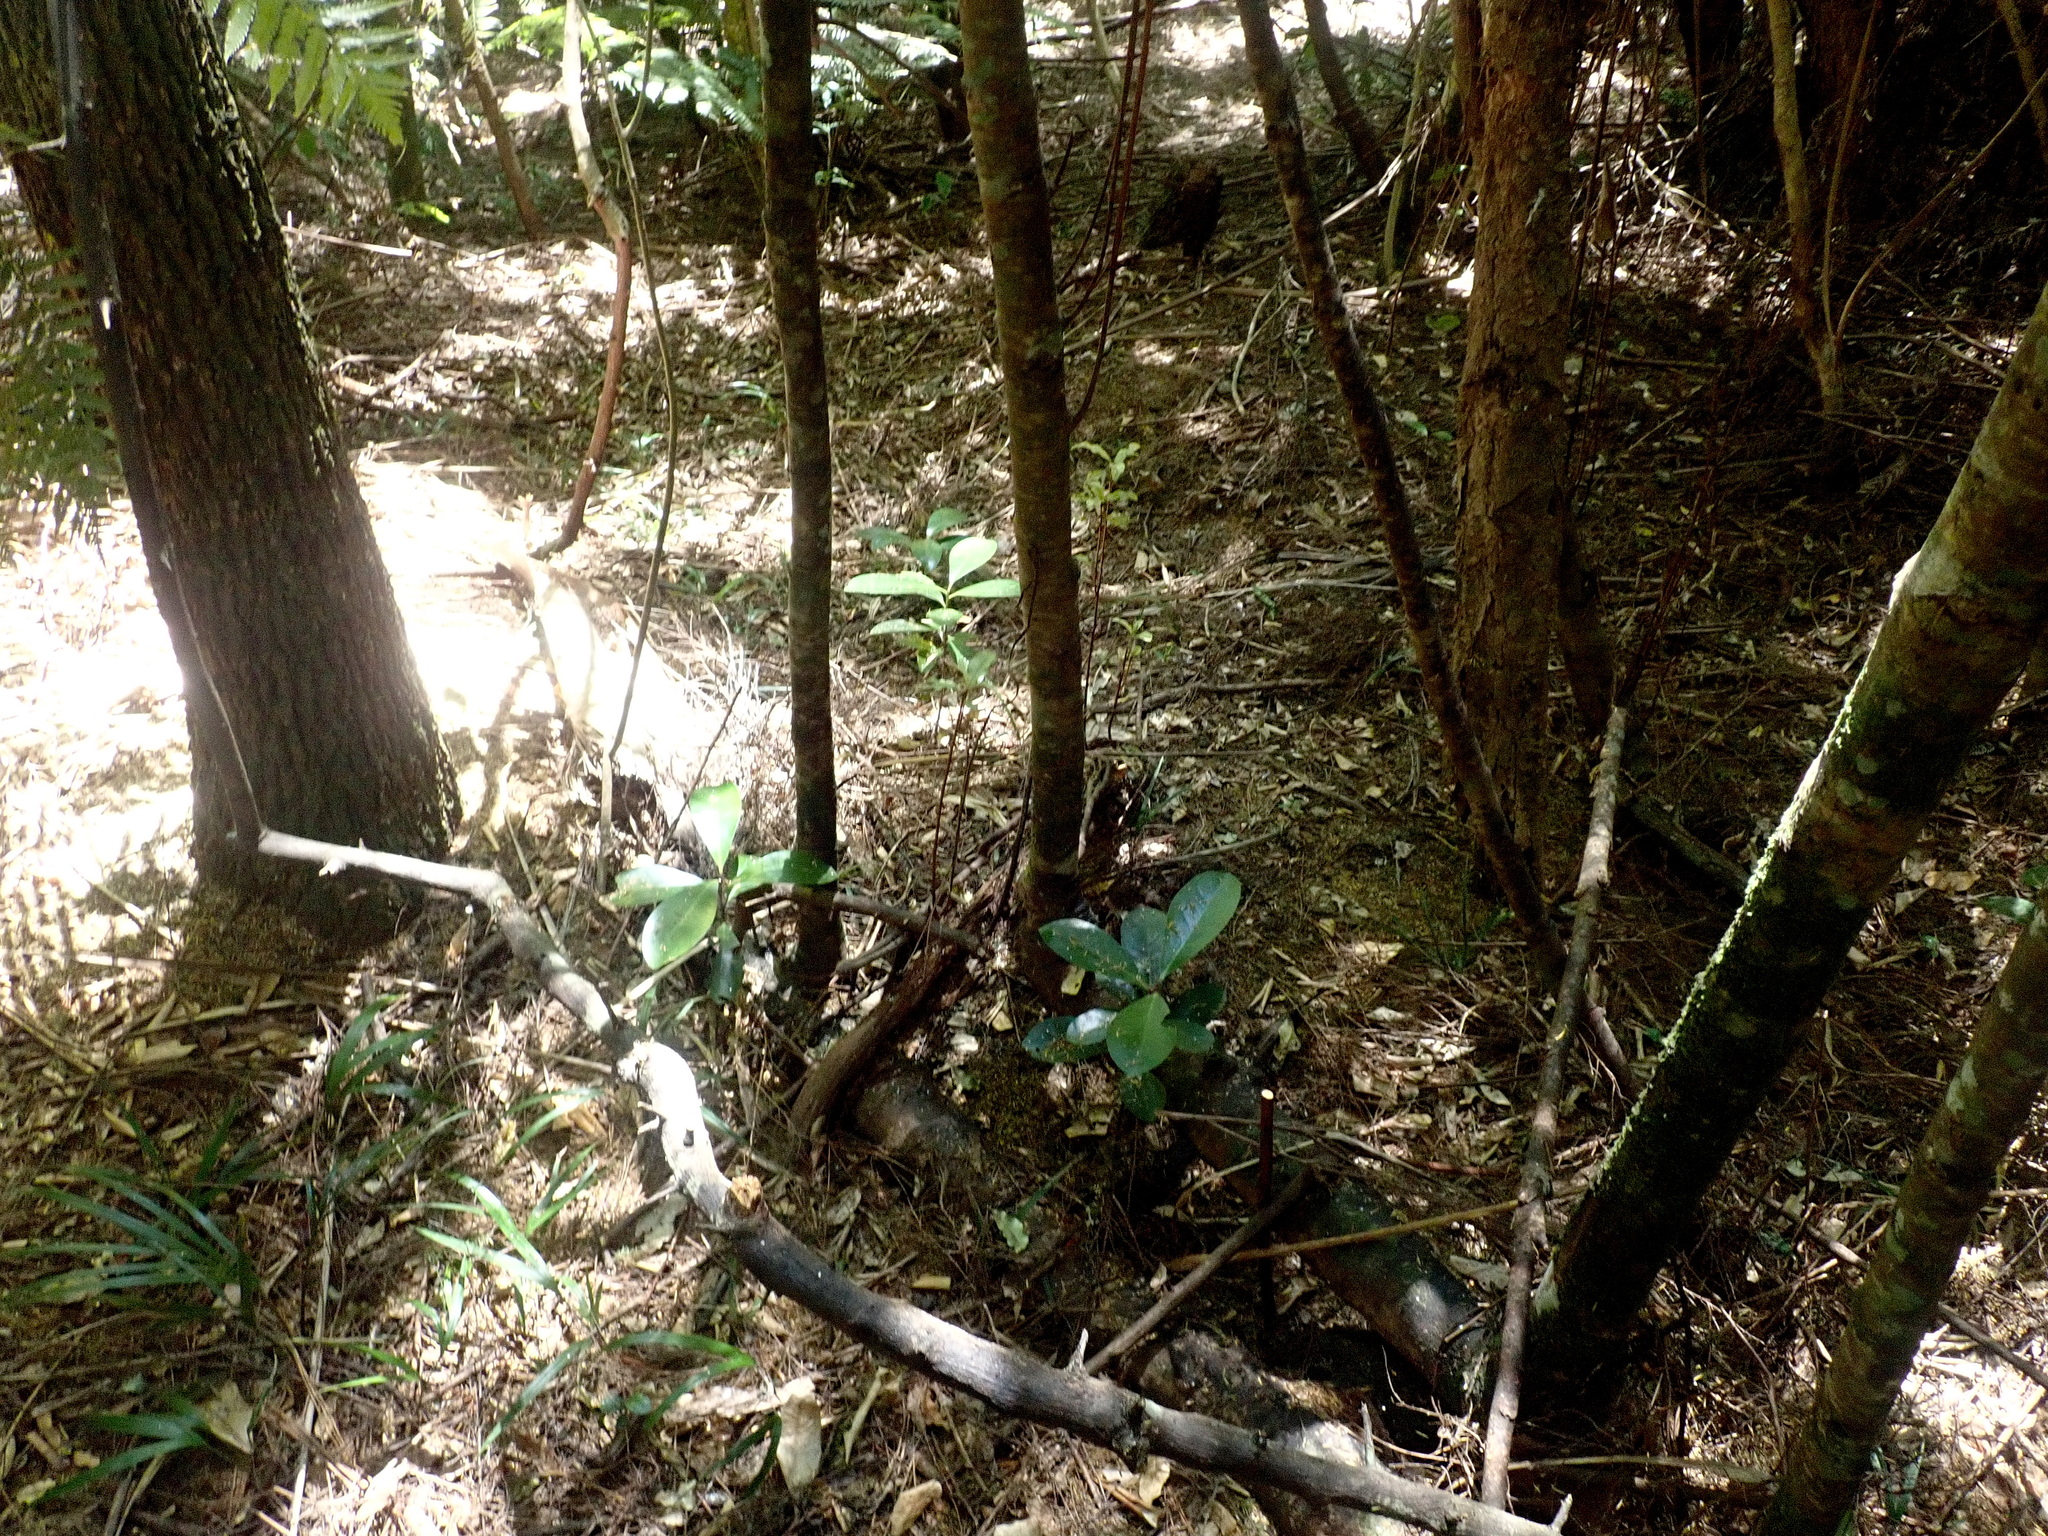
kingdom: Plantae
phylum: Tracheophyta
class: Magnoliopsida
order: Cucurbitales
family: Corynocarpaceae
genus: Corynocarpus
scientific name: Corynocarpus laevigatus
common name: New zealand laurel
